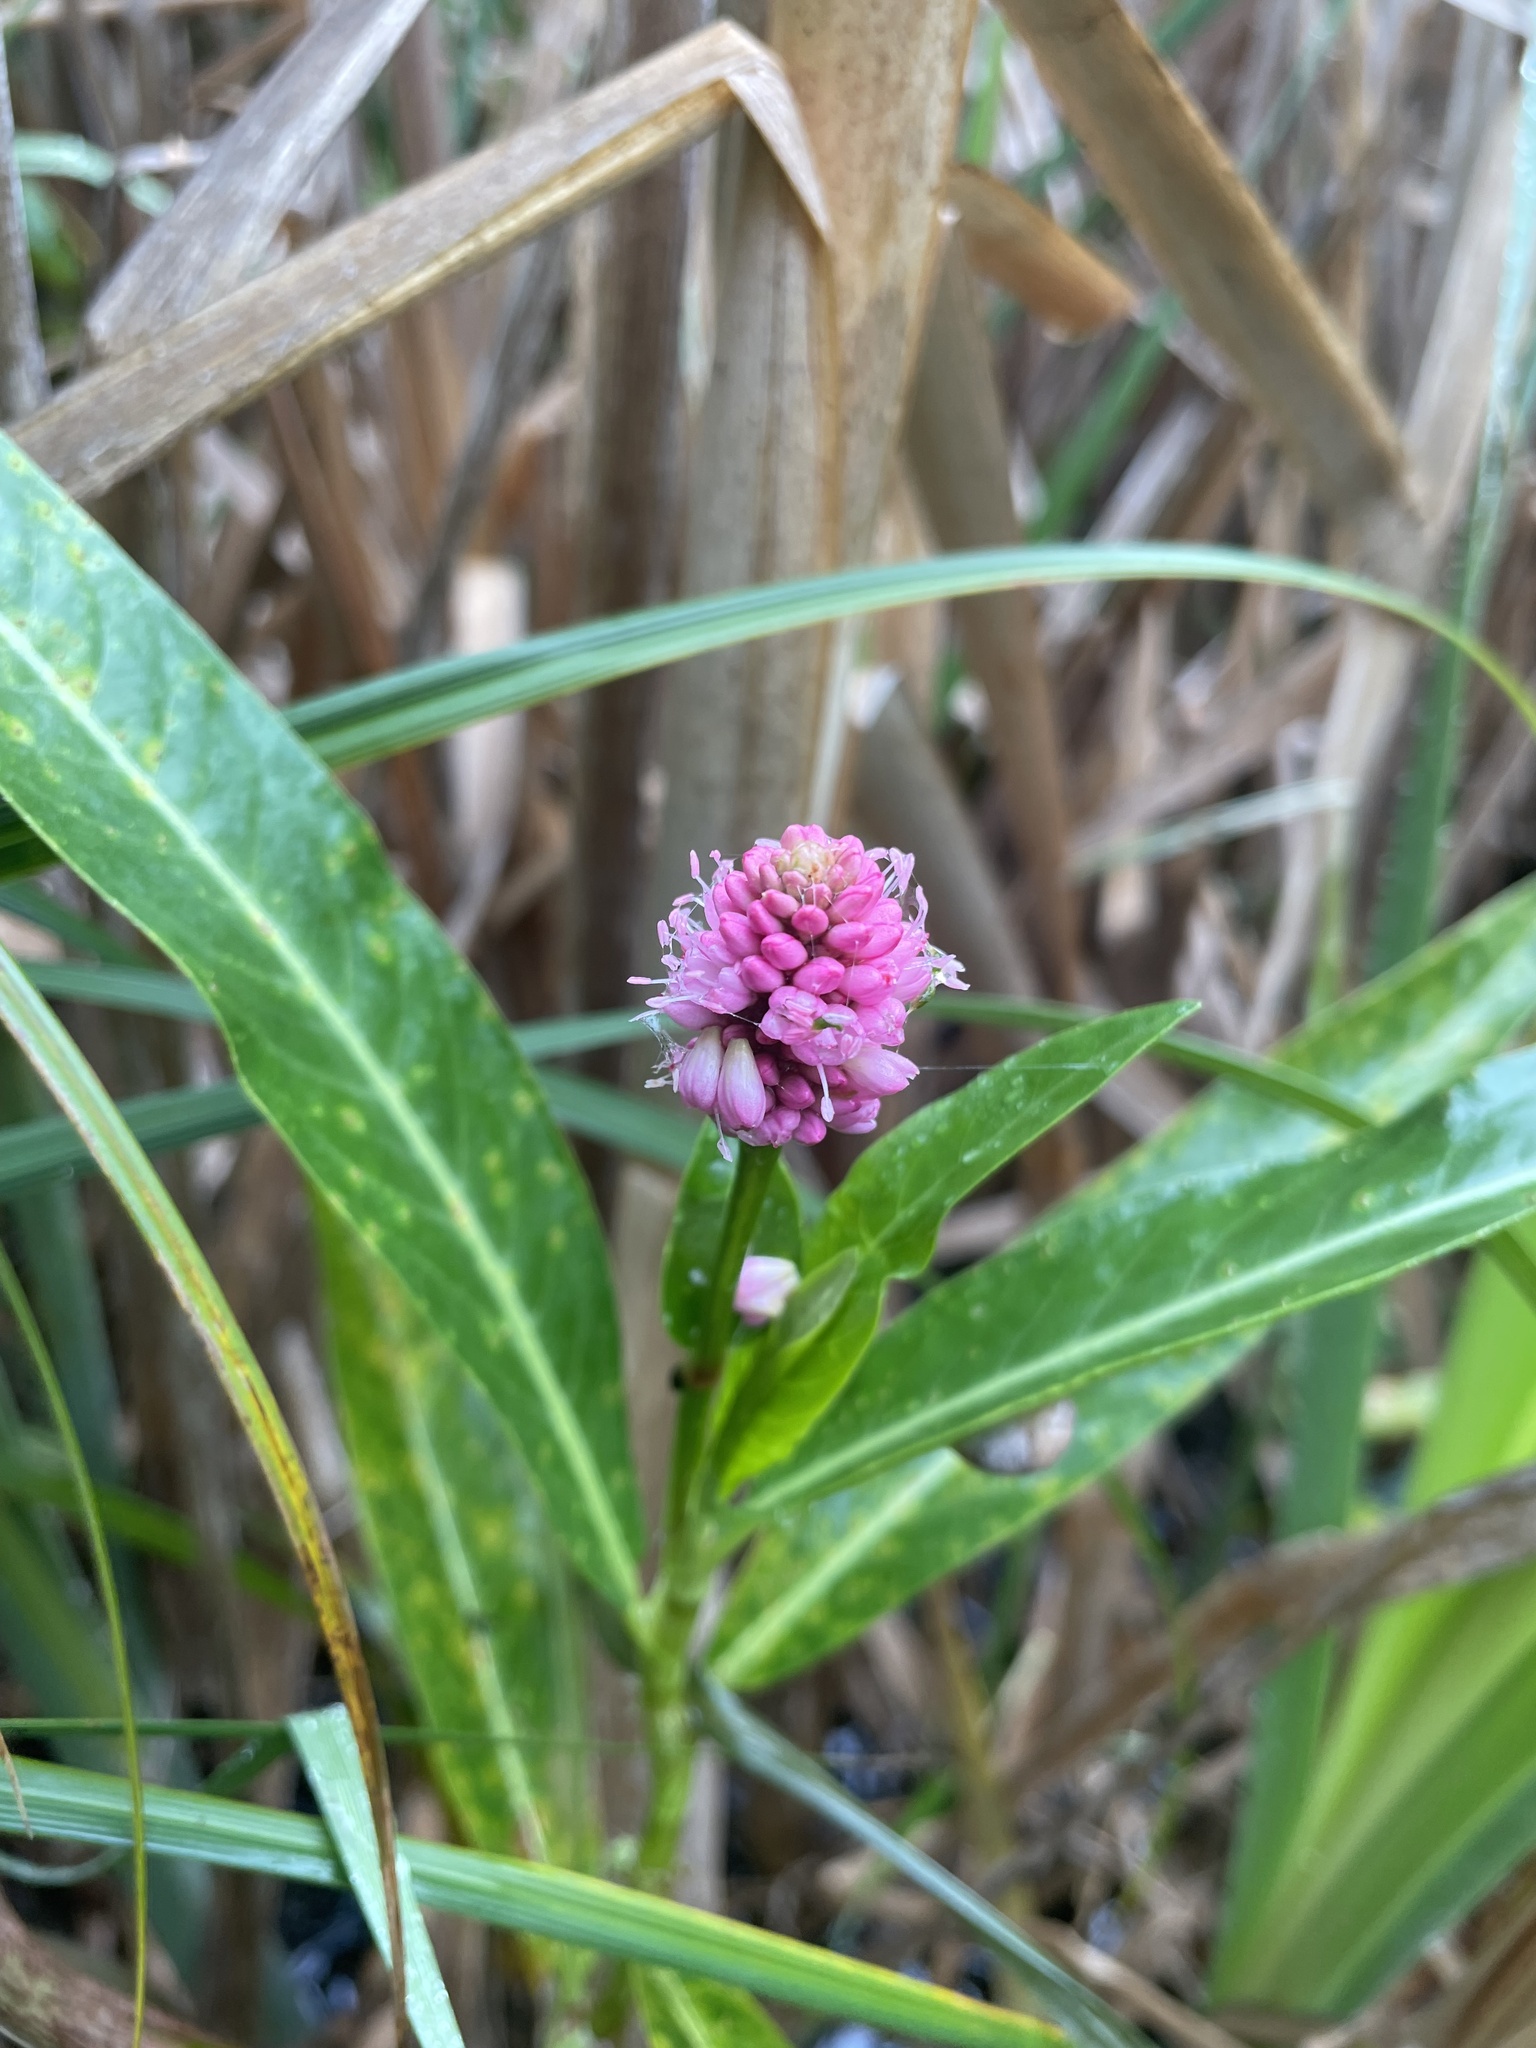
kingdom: Plantae
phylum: Tracheophyta
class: Magnoliopsida
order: Caryophyllales
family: Polygonaceae
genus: Persicaria
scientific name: Persicaria amphibia
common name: Amphibious bistort
